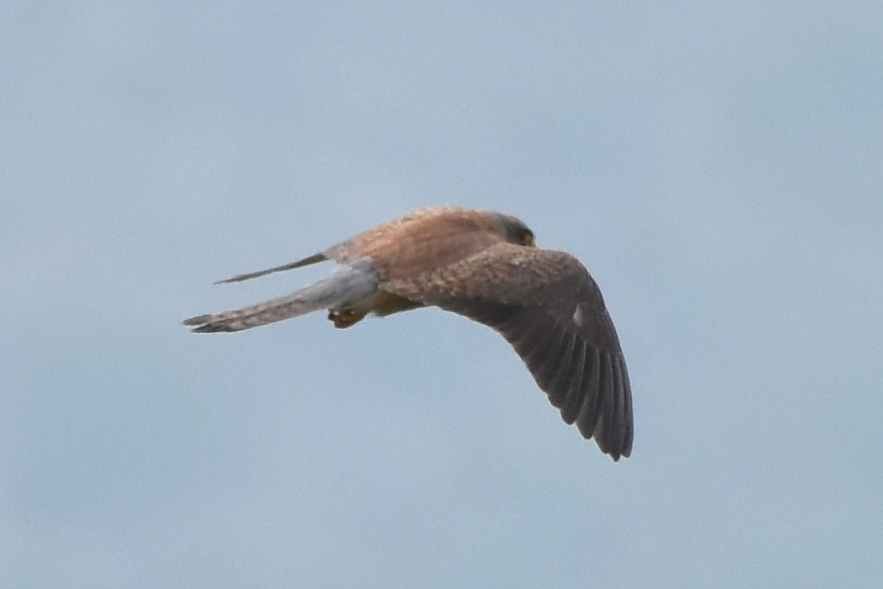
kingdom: Animalia
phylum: Chordata
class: Aves
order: Falconiformes
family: Falconidae
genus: Falco
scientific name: Falco tinnunculus
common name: Common kestrel
